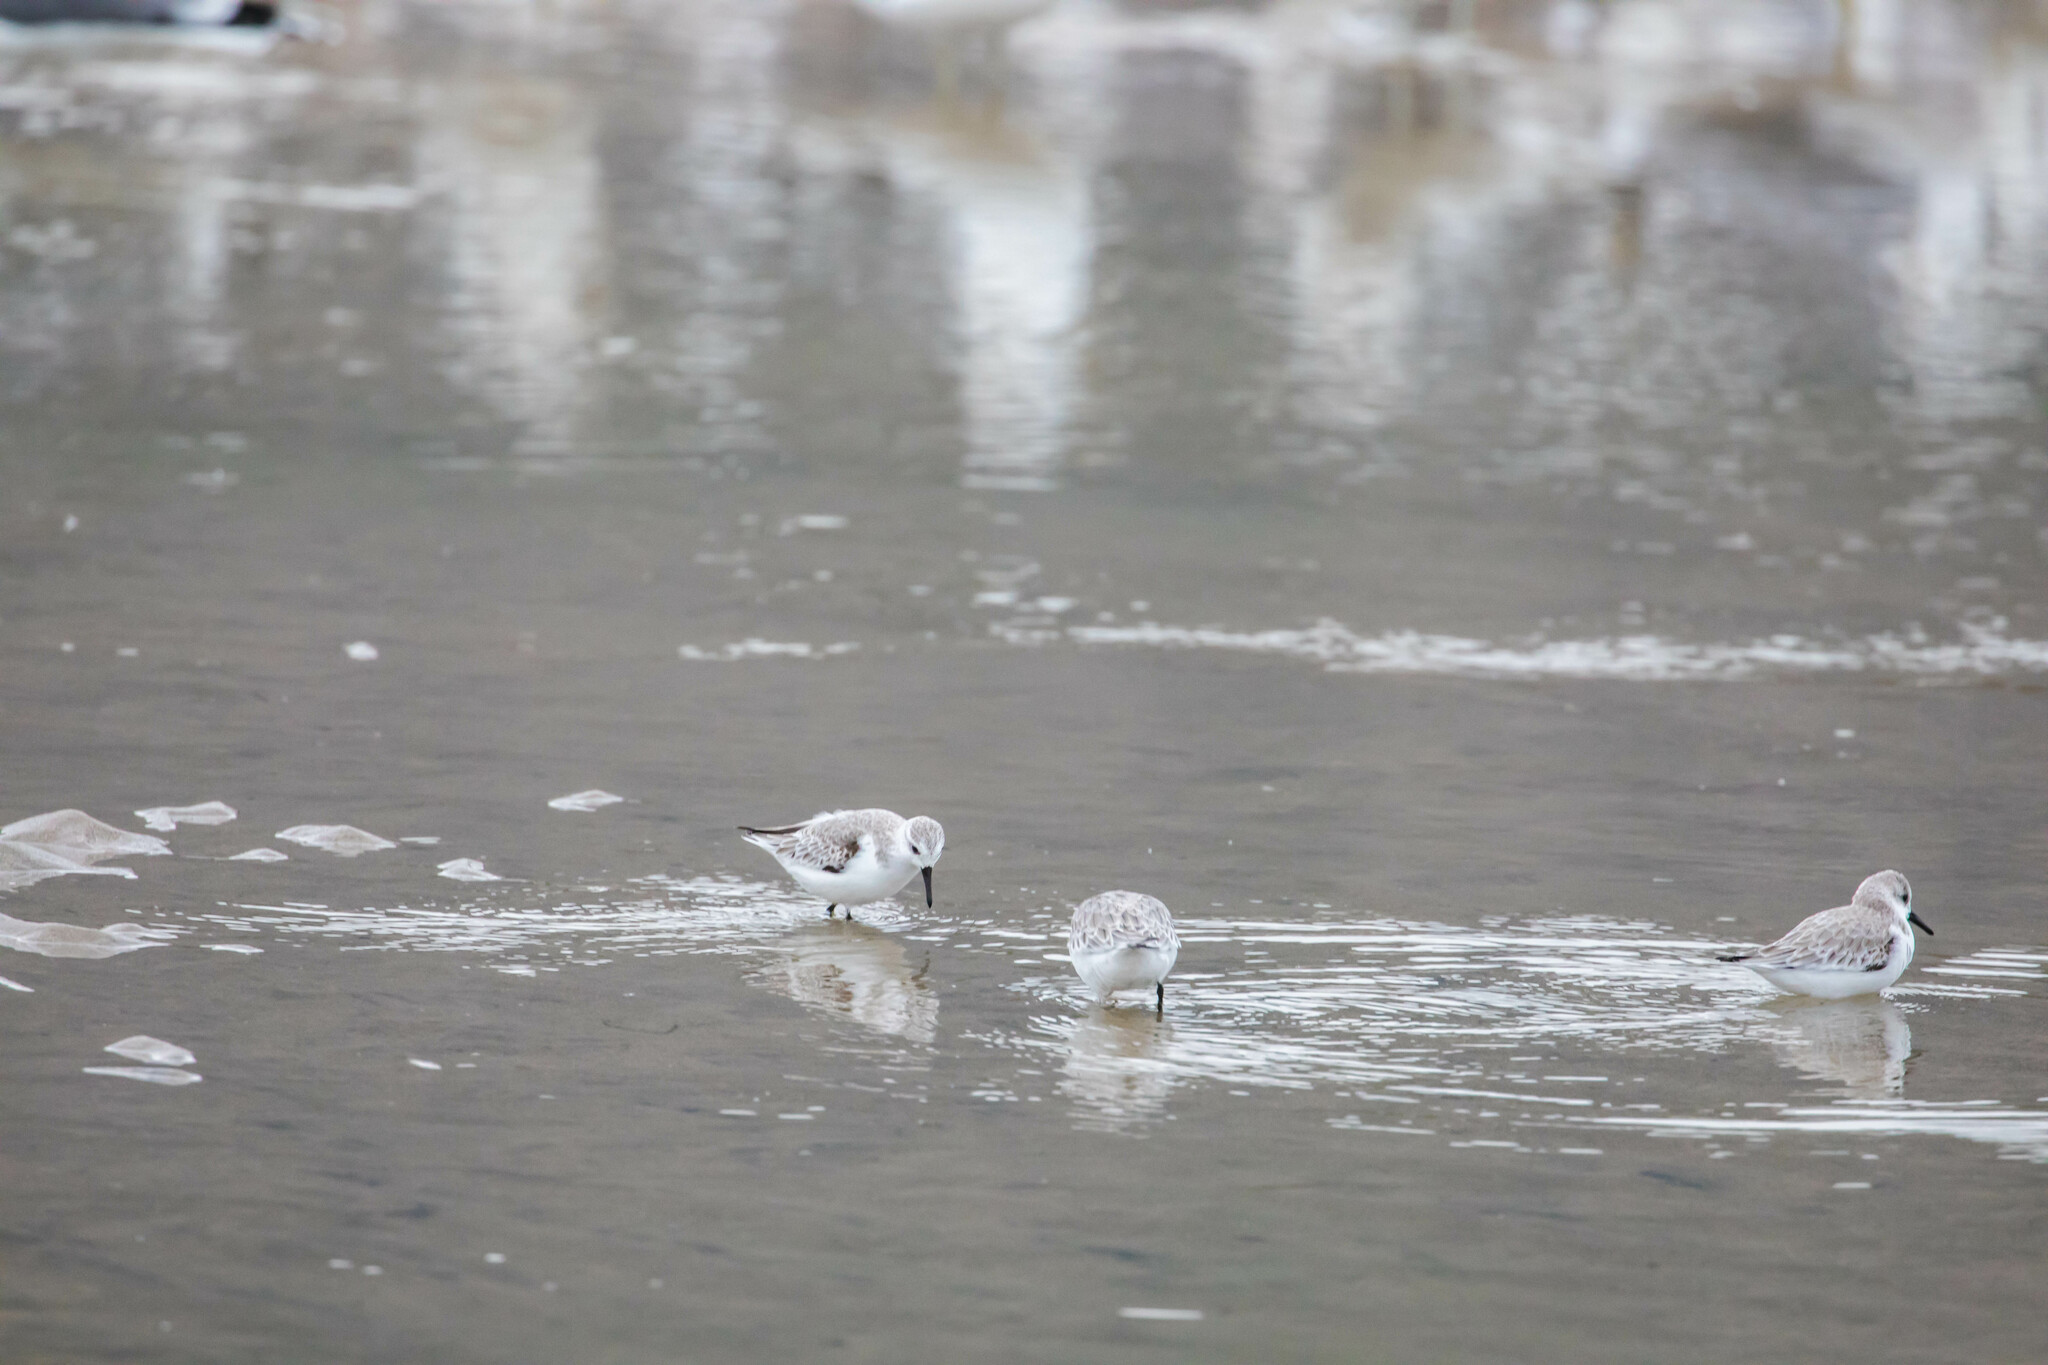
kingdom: Animalia
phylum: Chordata
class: Aves
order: Charadriiformes
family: Scolopacidae
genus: Calidris
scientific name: Calidris alba
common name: Sanderling
